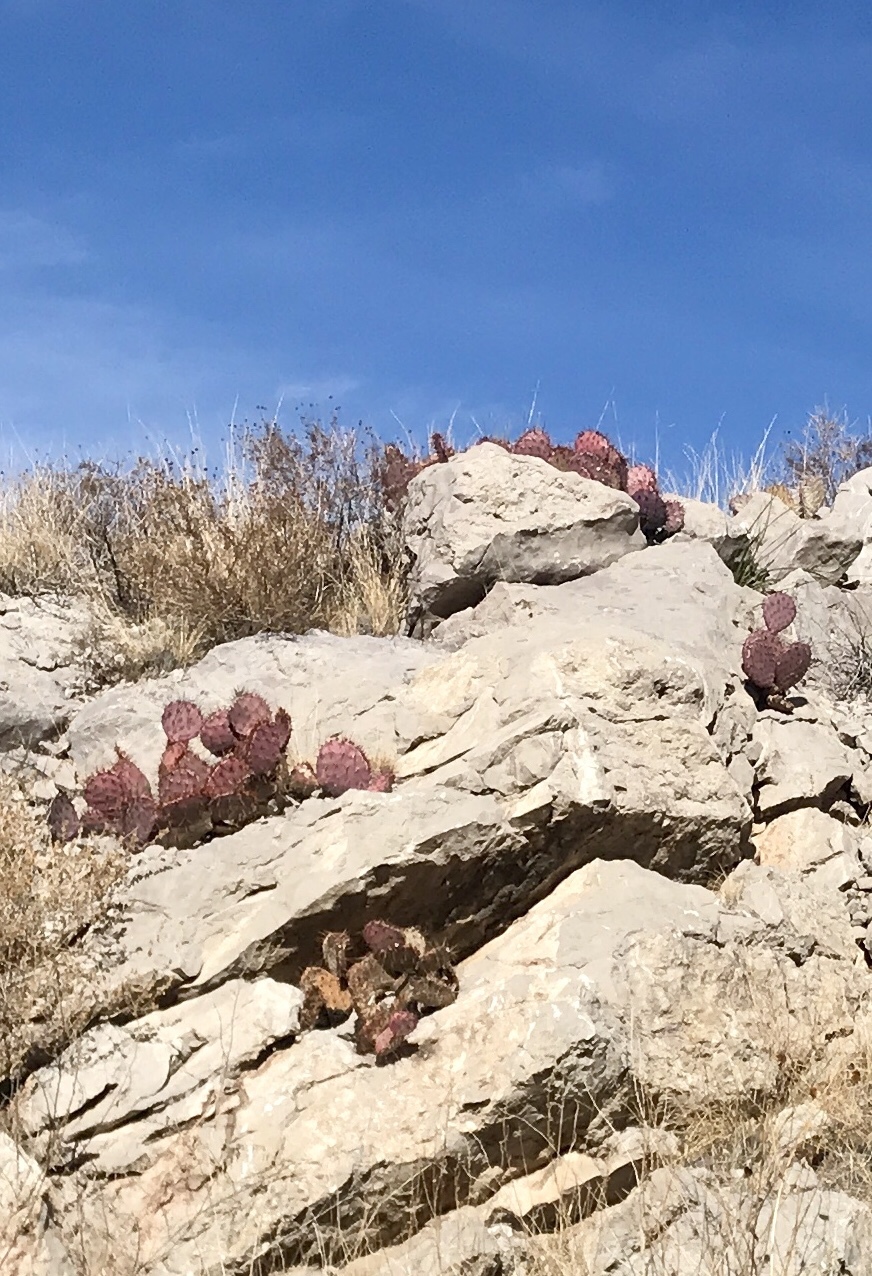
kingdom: Plantae
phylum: Tracheophyta
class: Magnoliopsida
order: Caryophyllales
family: Cactaceae
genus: Opuntia
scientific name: Opuntia macrocentra
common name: Purple prickly-pear
